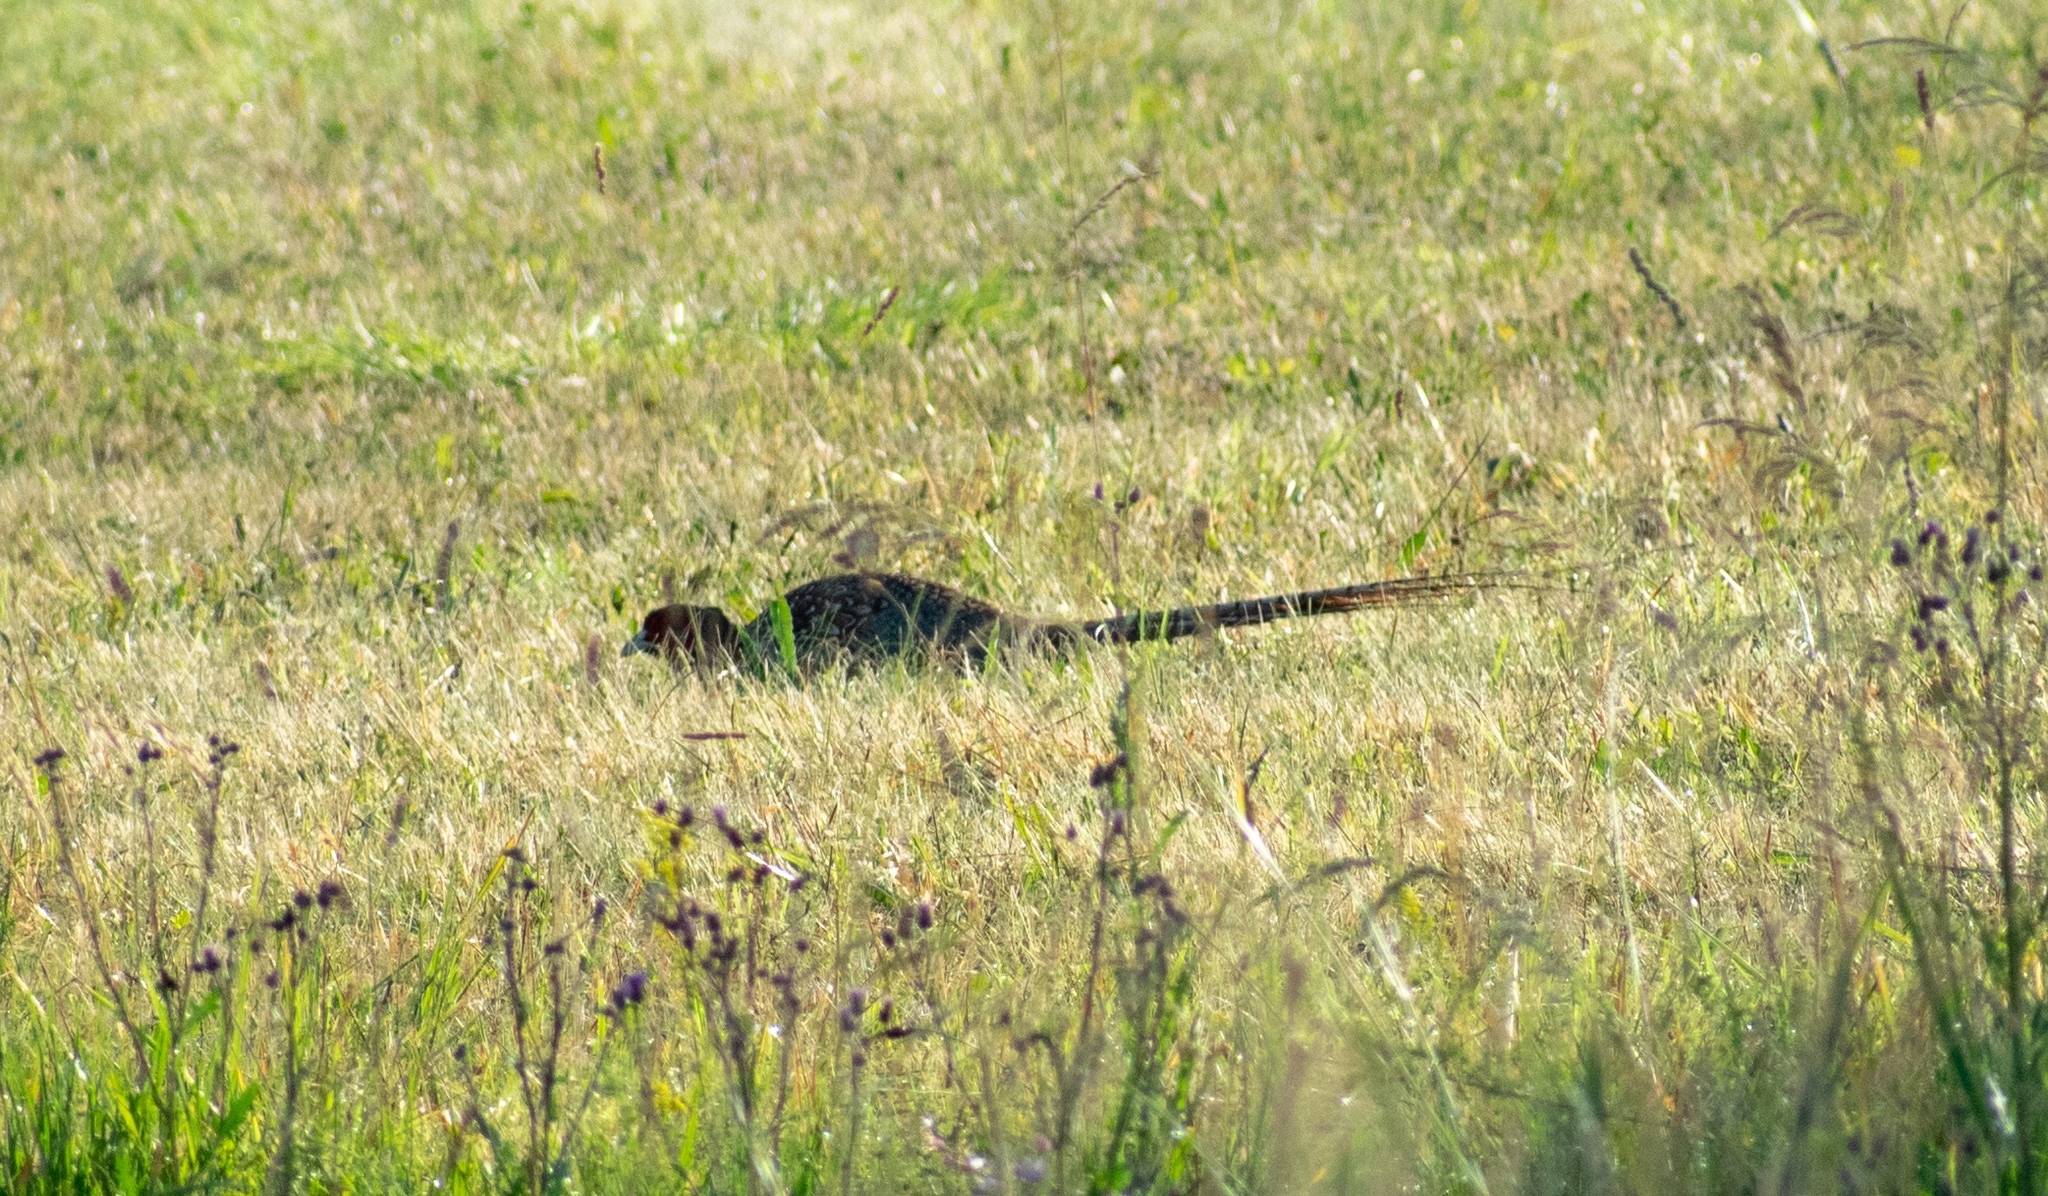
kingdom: Animalia
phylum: Chordata
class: Aves
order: Galliformes
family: Phasianidae
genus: Phasianus
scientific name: Phasianus colchicus
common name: Common pheasant
